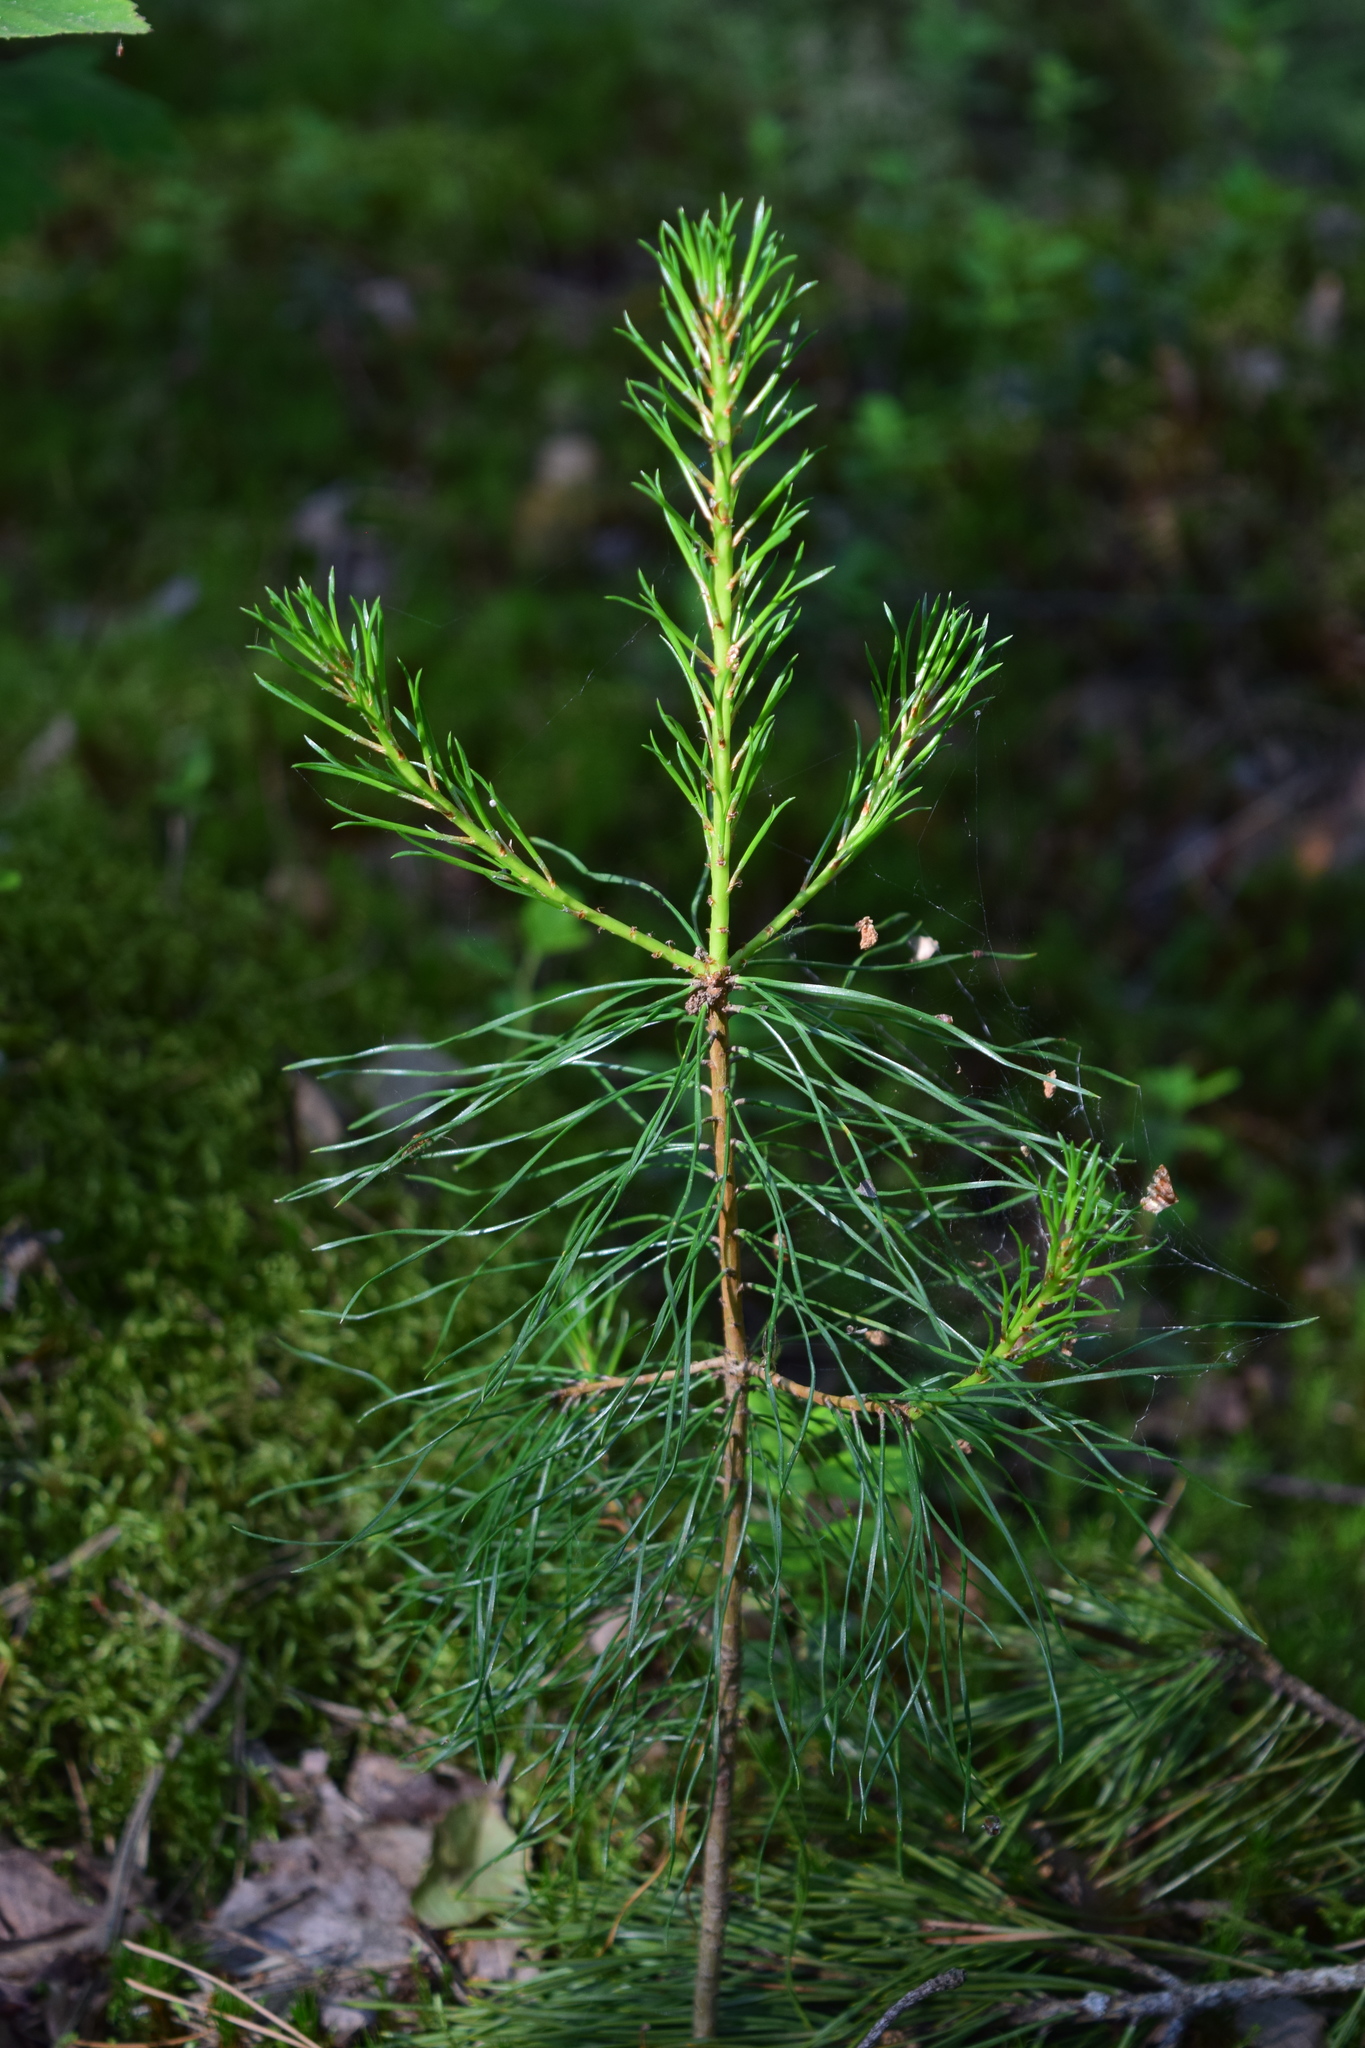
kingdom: Plantae
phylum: Tracheophyta
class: Pinopsida
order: Pinales
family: Pinaceae
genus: Pinus
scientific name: Pinus sylvestris
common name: Scots pine
